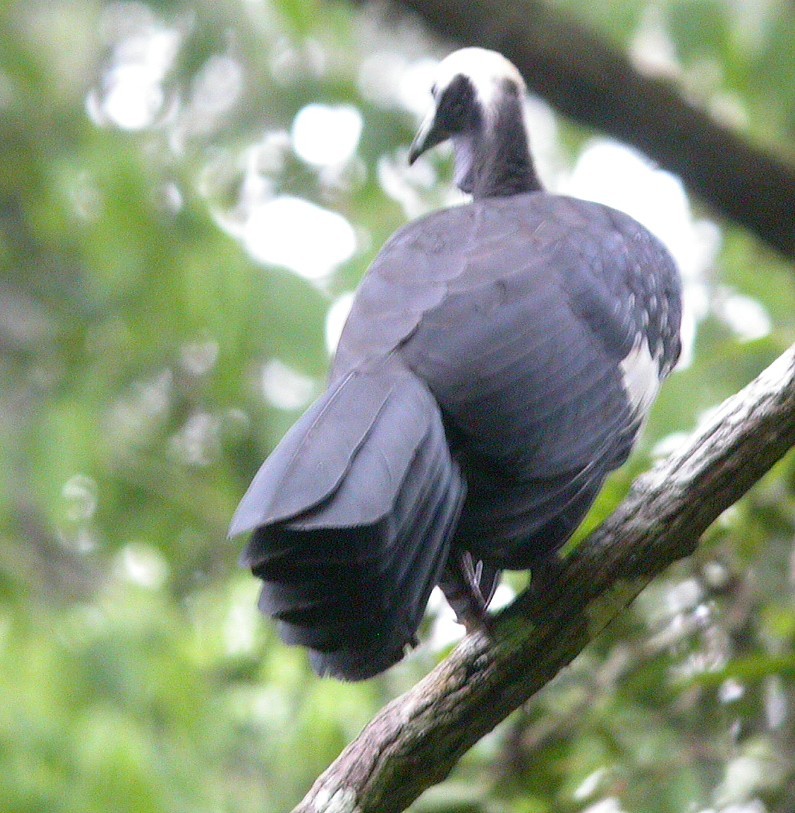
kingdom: Animalia
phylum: Chordata
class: Aves
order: Galliformes
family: Cracidae
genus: Pipile
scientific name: Pipile cumanensis
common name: Blue-throated piping-guan
